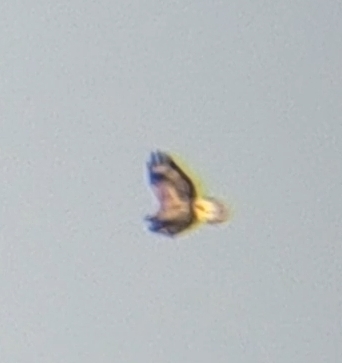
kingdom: Animalia
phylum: Chordata
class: Aves
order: Accipitriformes
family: Accipitridae
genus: Buteo
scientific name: Buteo rufinus
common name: Long-legged buzzard
